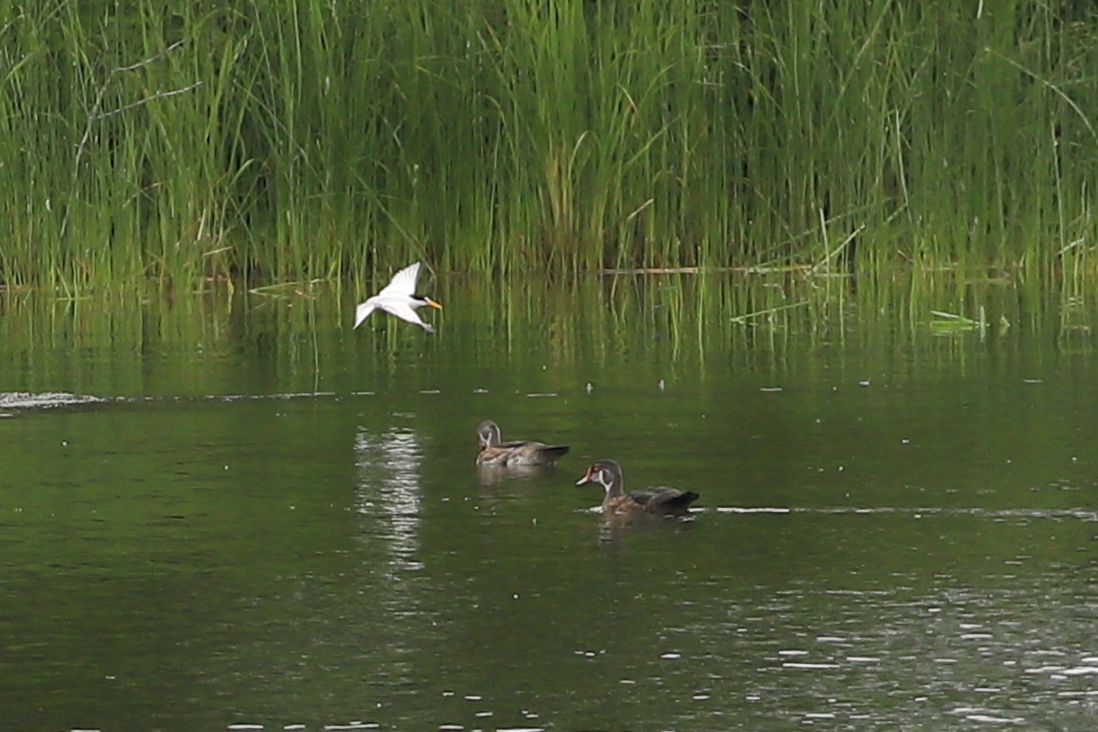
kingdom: Animalia
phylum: Chordata
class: Aves
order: Anseriformes
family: Anatidae
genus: Aix
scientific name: Aix sponsa
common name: Wood duck
